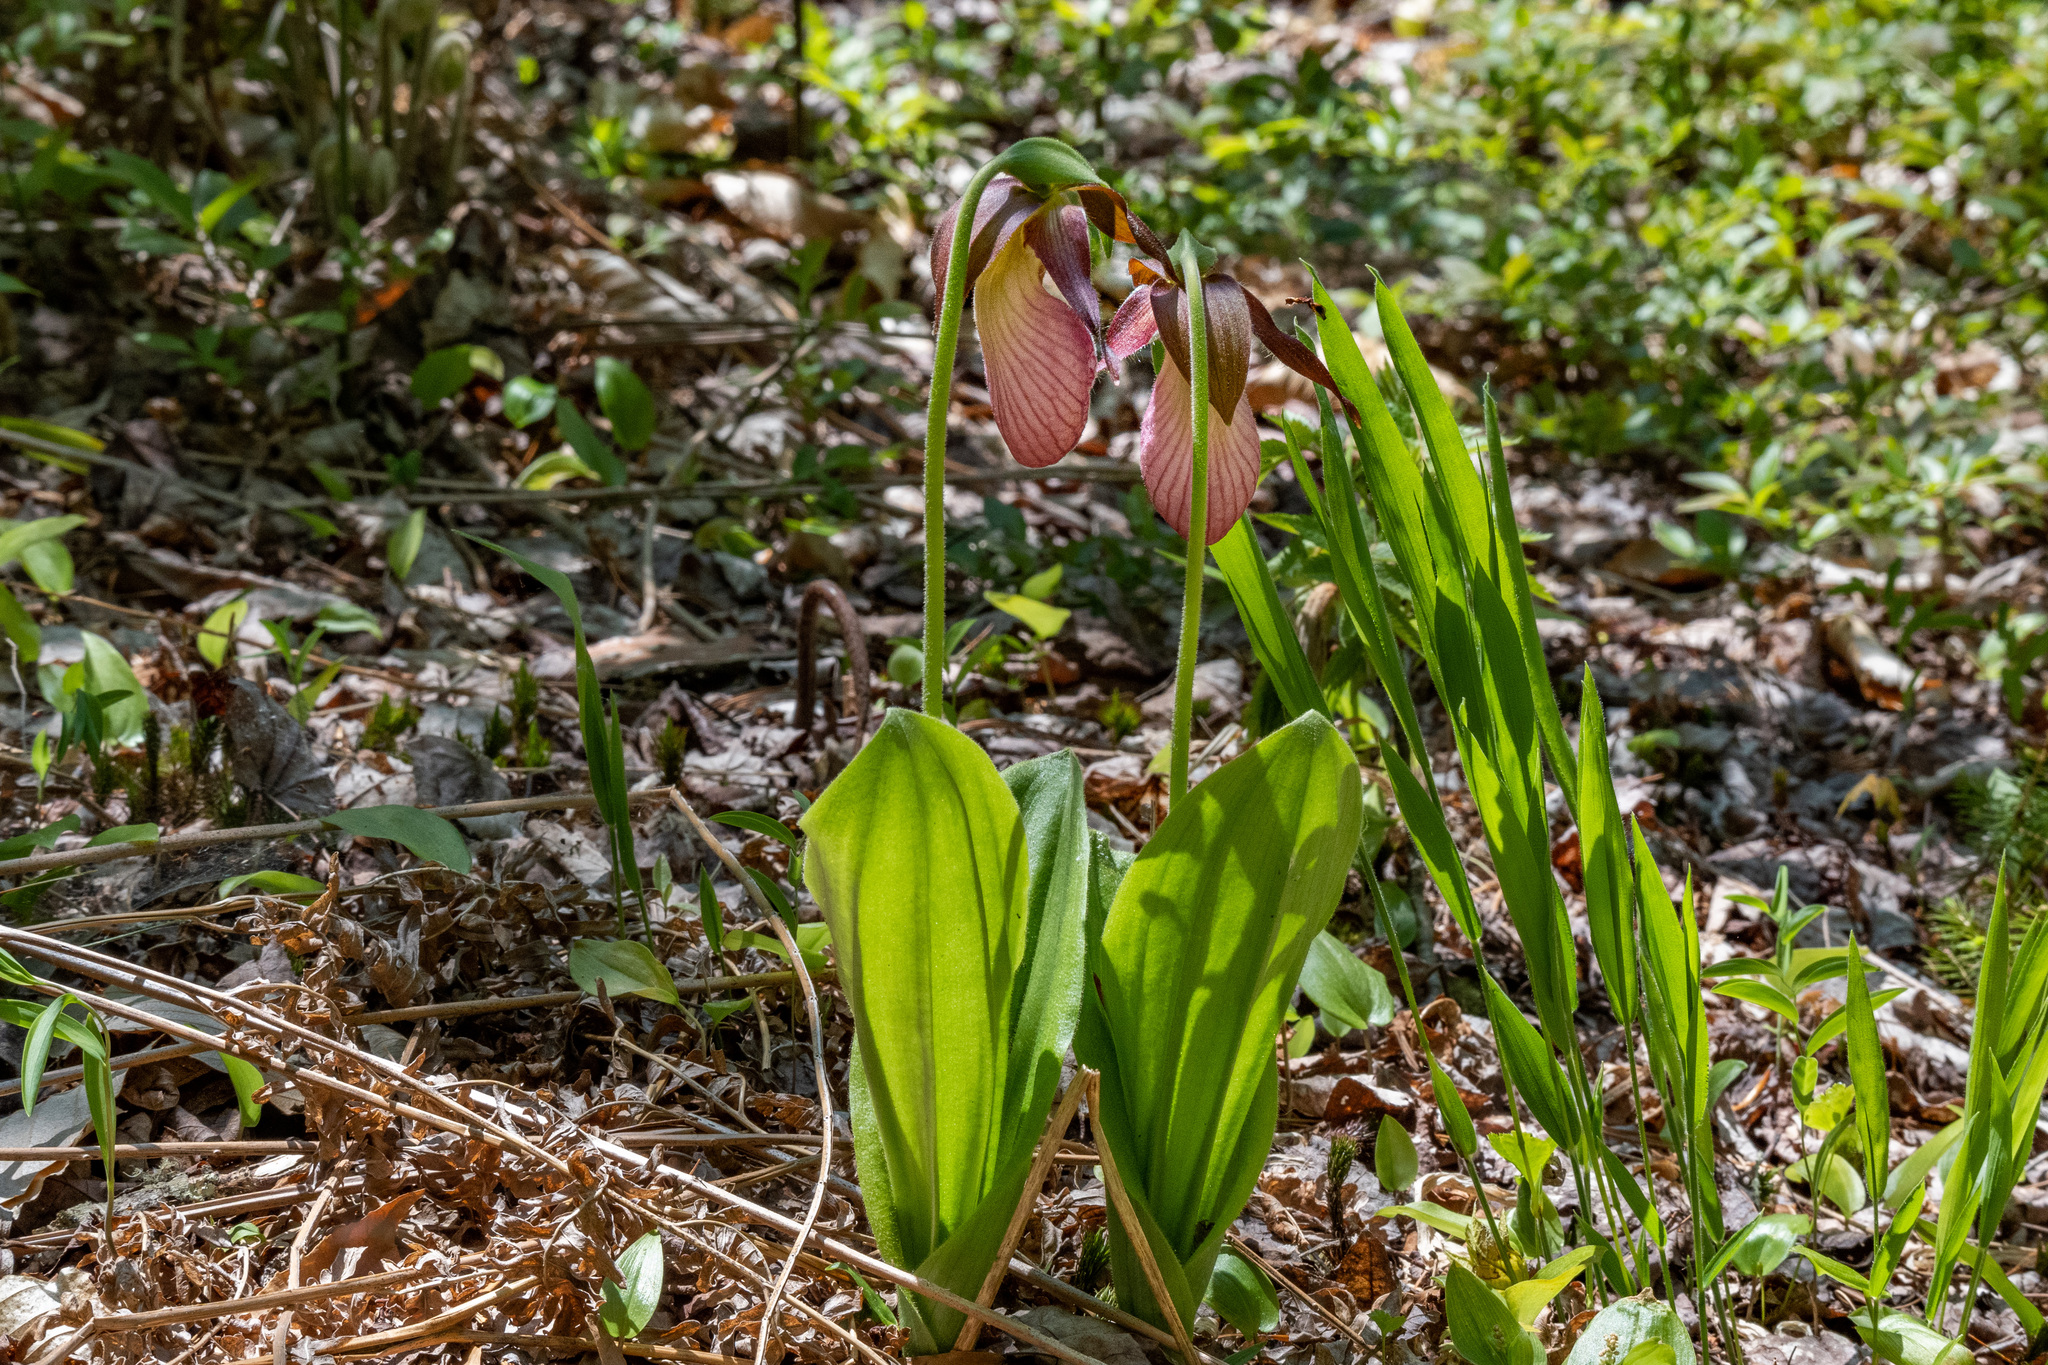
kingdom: Plantae
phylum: Tracheophyta
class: Liliopsida
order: Asparagales
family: Orchidaceae
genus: Cypripedium
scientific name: Cypripedium acaule
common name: Pink lady's-slipper
